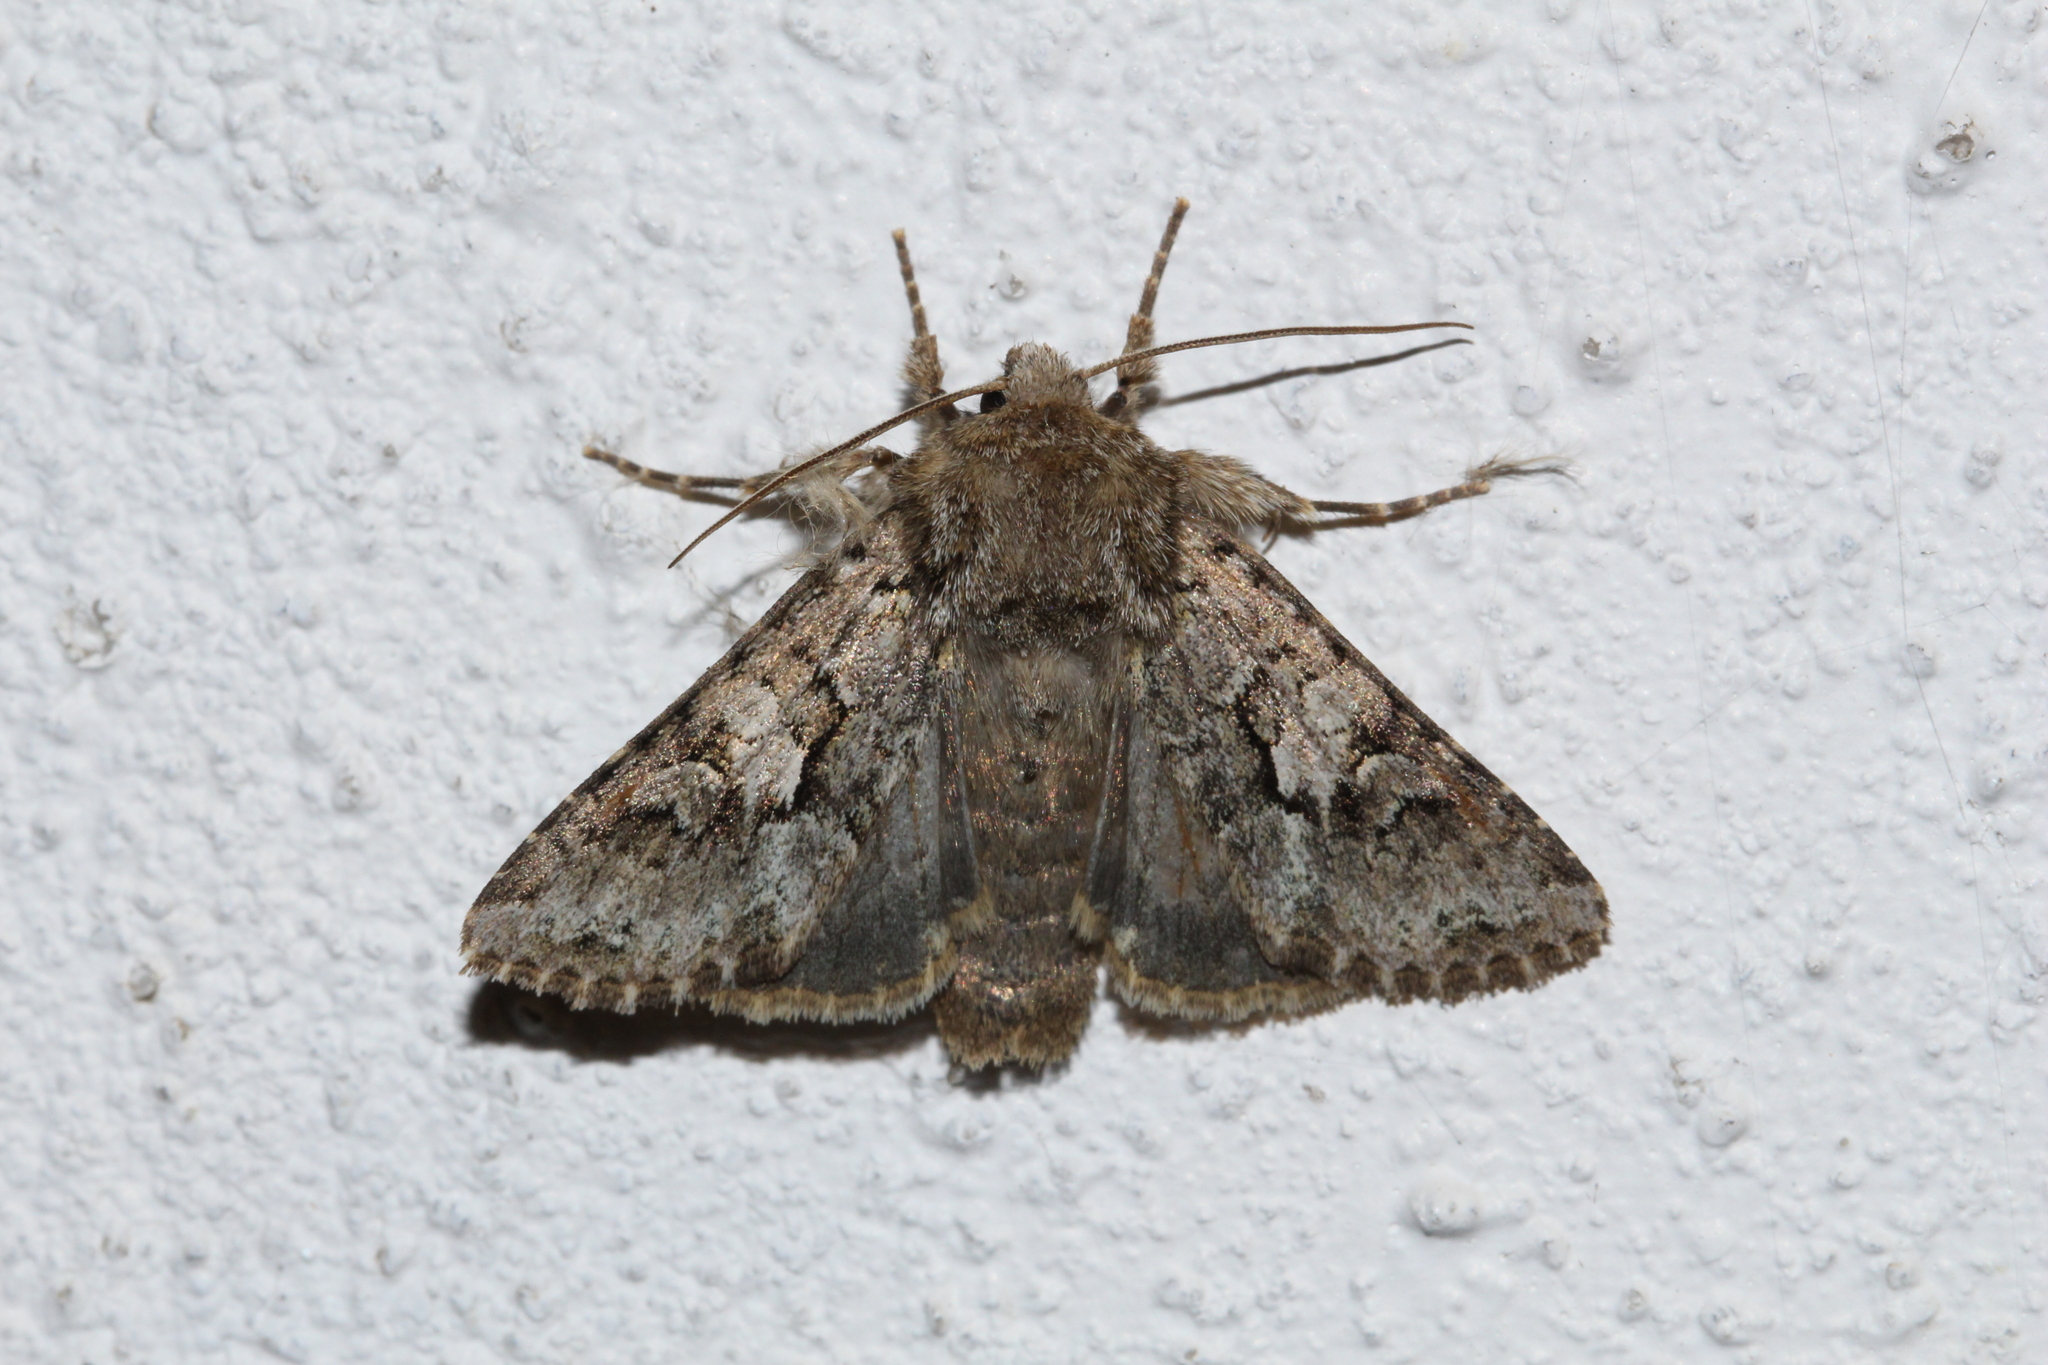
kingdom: Animalia
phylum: Arthropoda
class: Insecta
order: Lepidoptera
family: Noctuidae
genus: Hada
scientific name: Hada plebeja
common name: Shears
